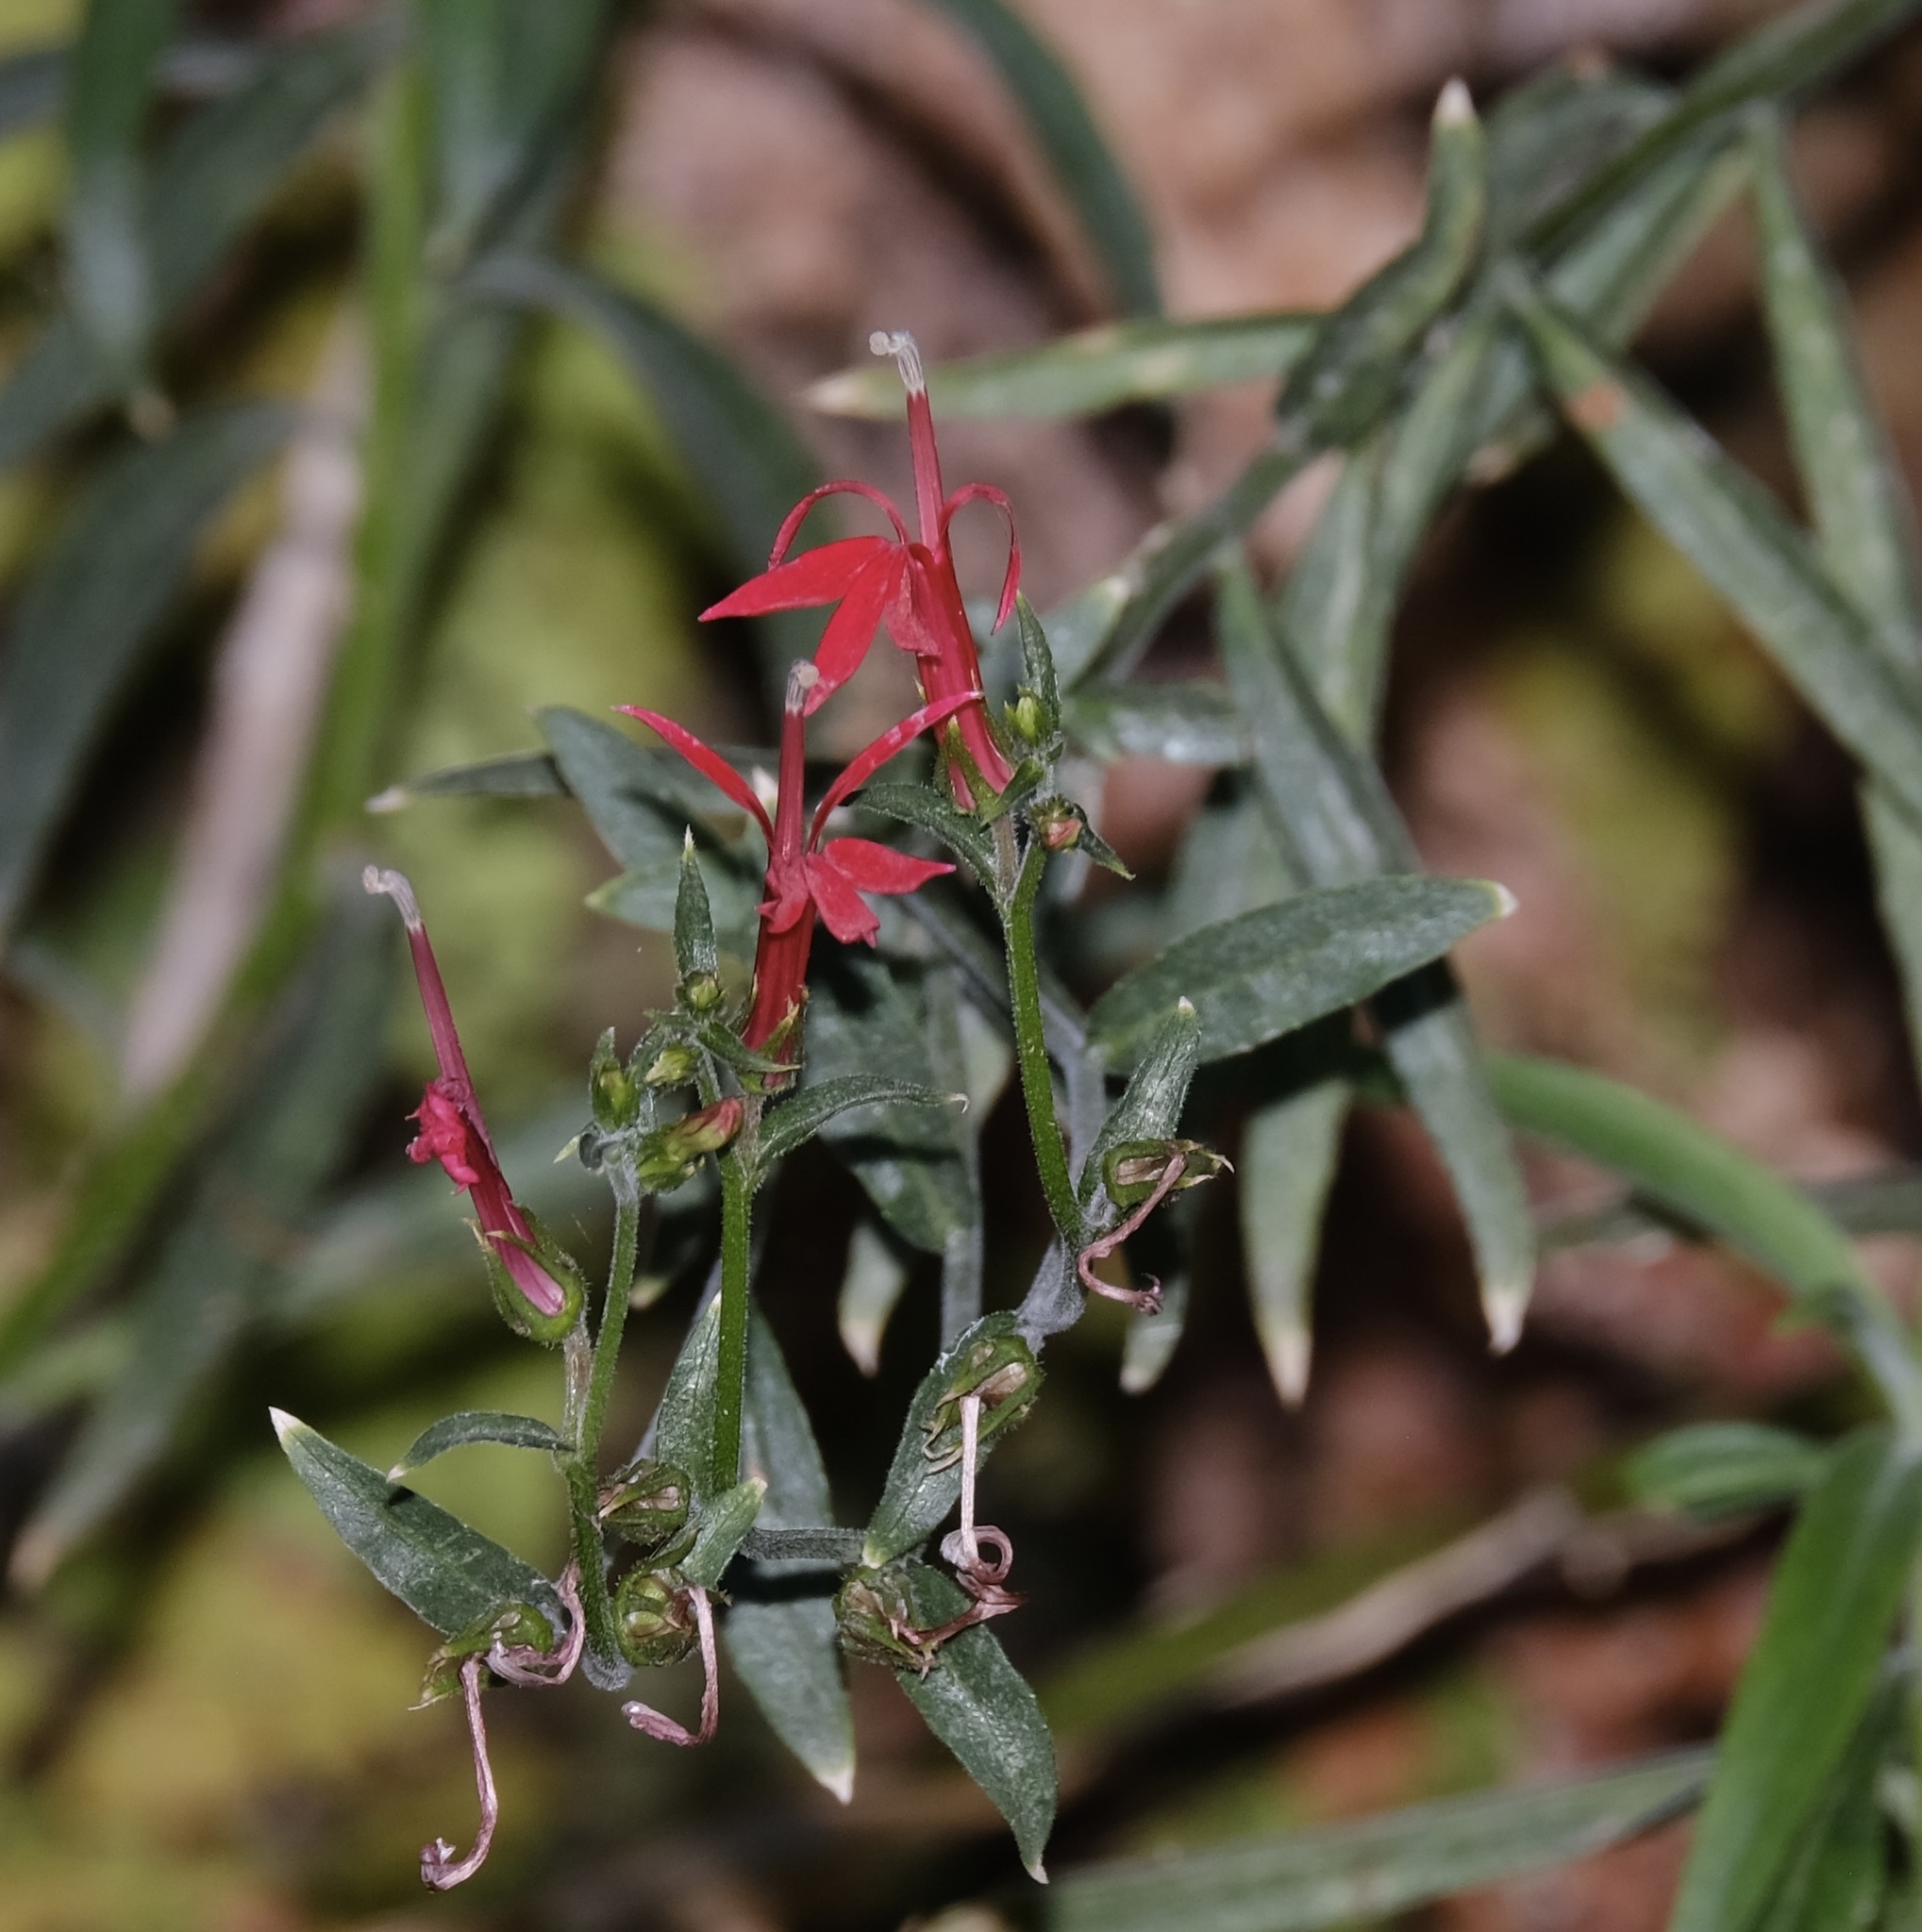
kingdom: Plantae
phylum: Tracheophyta
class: Magnoliopsida
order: Asterales
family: Campanulaceae
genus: Lobelia
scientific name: Lobelia cardinalis
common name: Cardinal flower
